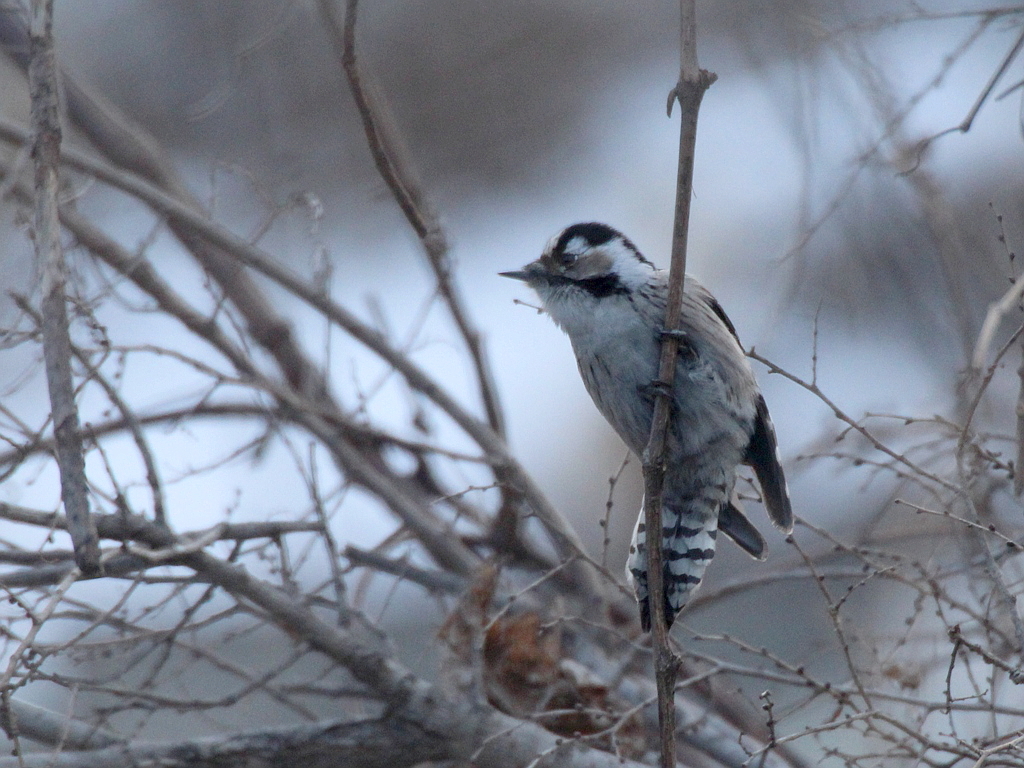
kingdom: Animalia
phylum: Chordata
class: Aves
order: Piciformes
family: Picidae
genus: Dryobates
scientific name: Dryobates minor
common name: Lesser spotted woodpecker
